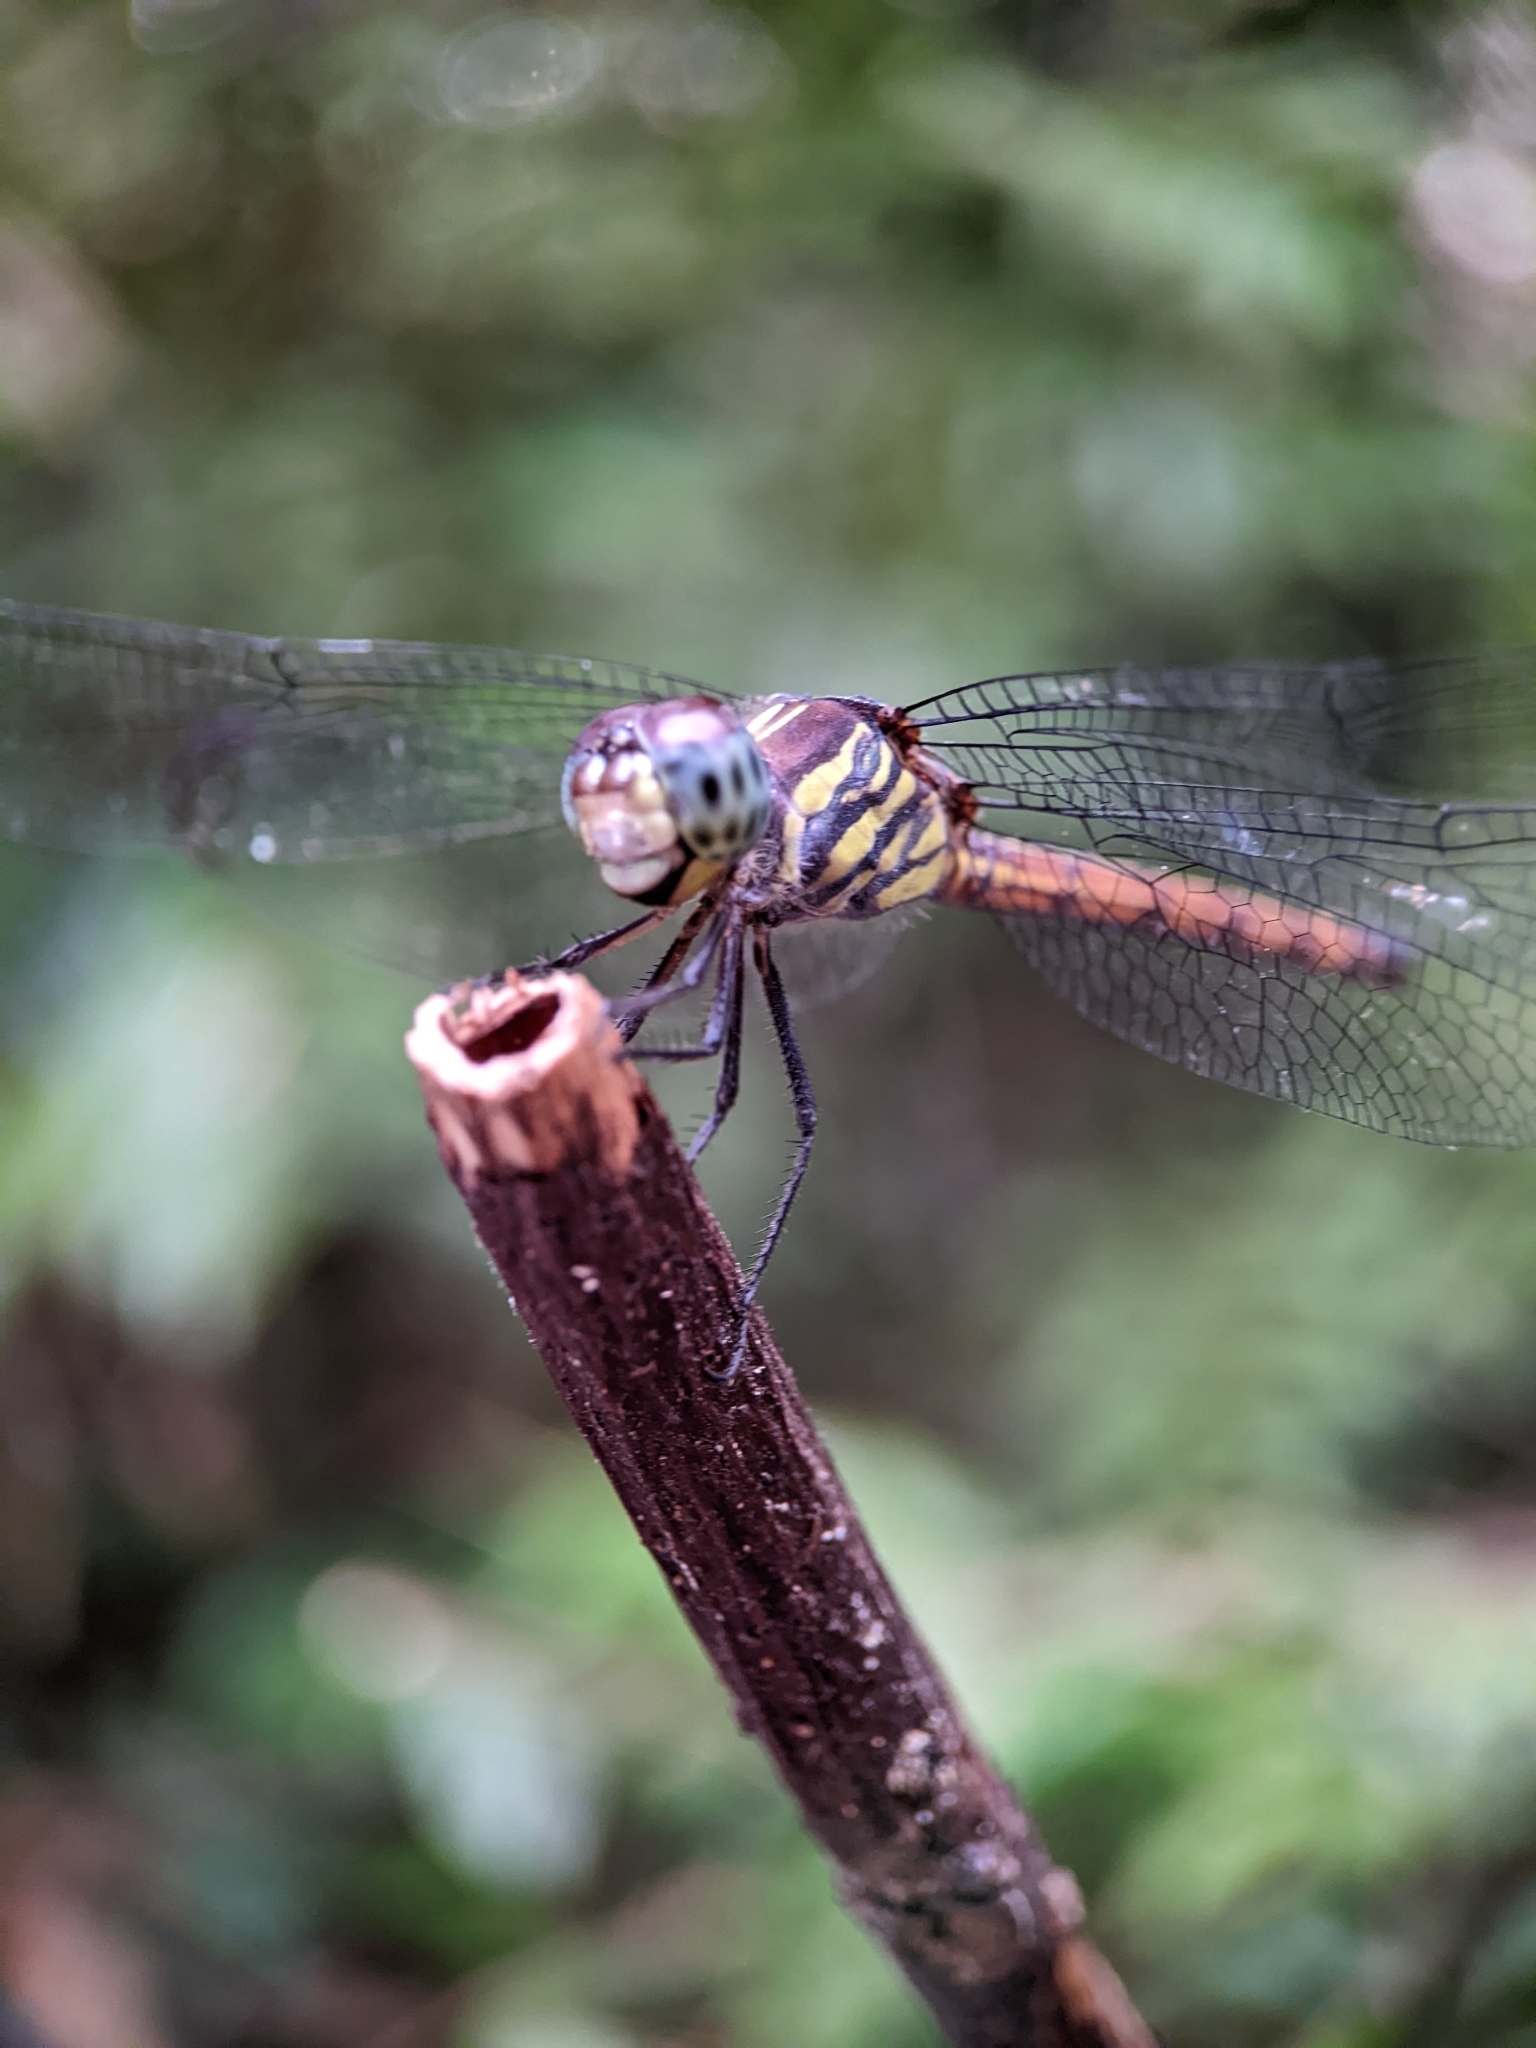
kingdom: Animalia
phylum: Arthropoda
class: Insecta
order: Odonata
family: Libellulidae
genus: Lathrecista
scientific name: Lathrecista asiatica
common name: Scarlet grenadier
